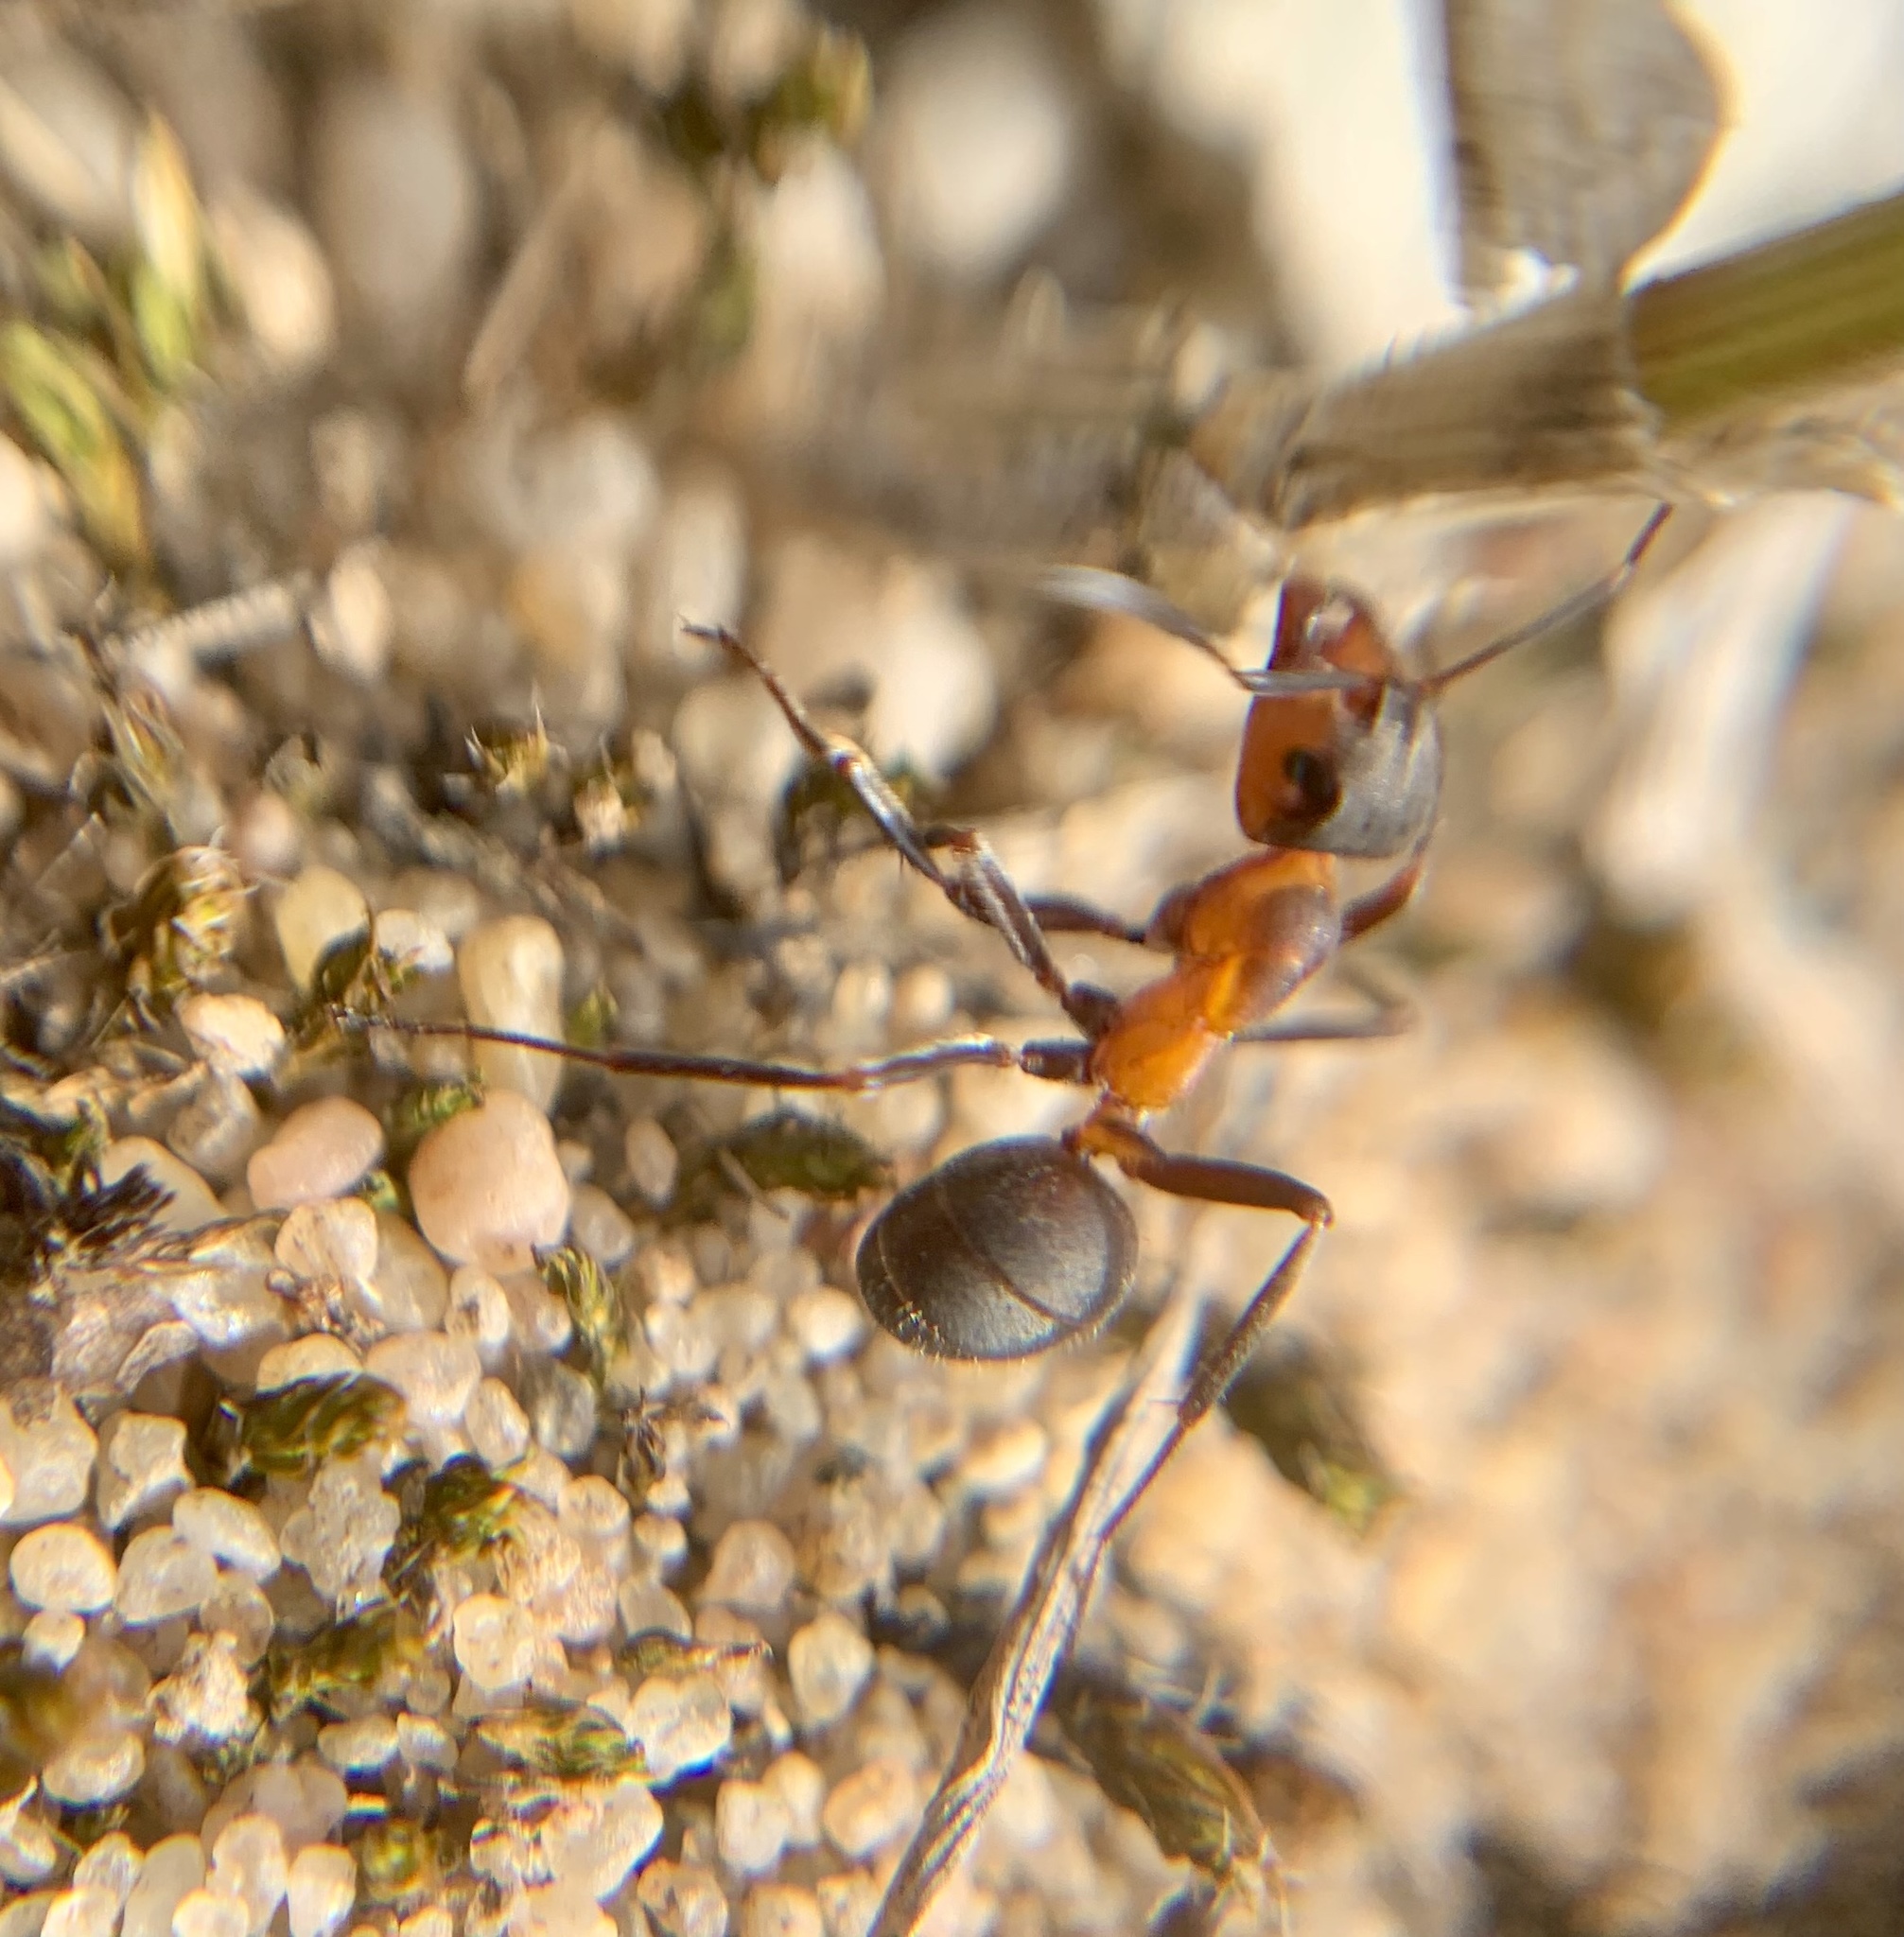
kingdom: Animalia
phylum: Arthropoda
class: Insecta
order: Hymenoptera
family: Formicidae
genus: Formica
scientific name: Formica pratensis
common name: European red wood ant
